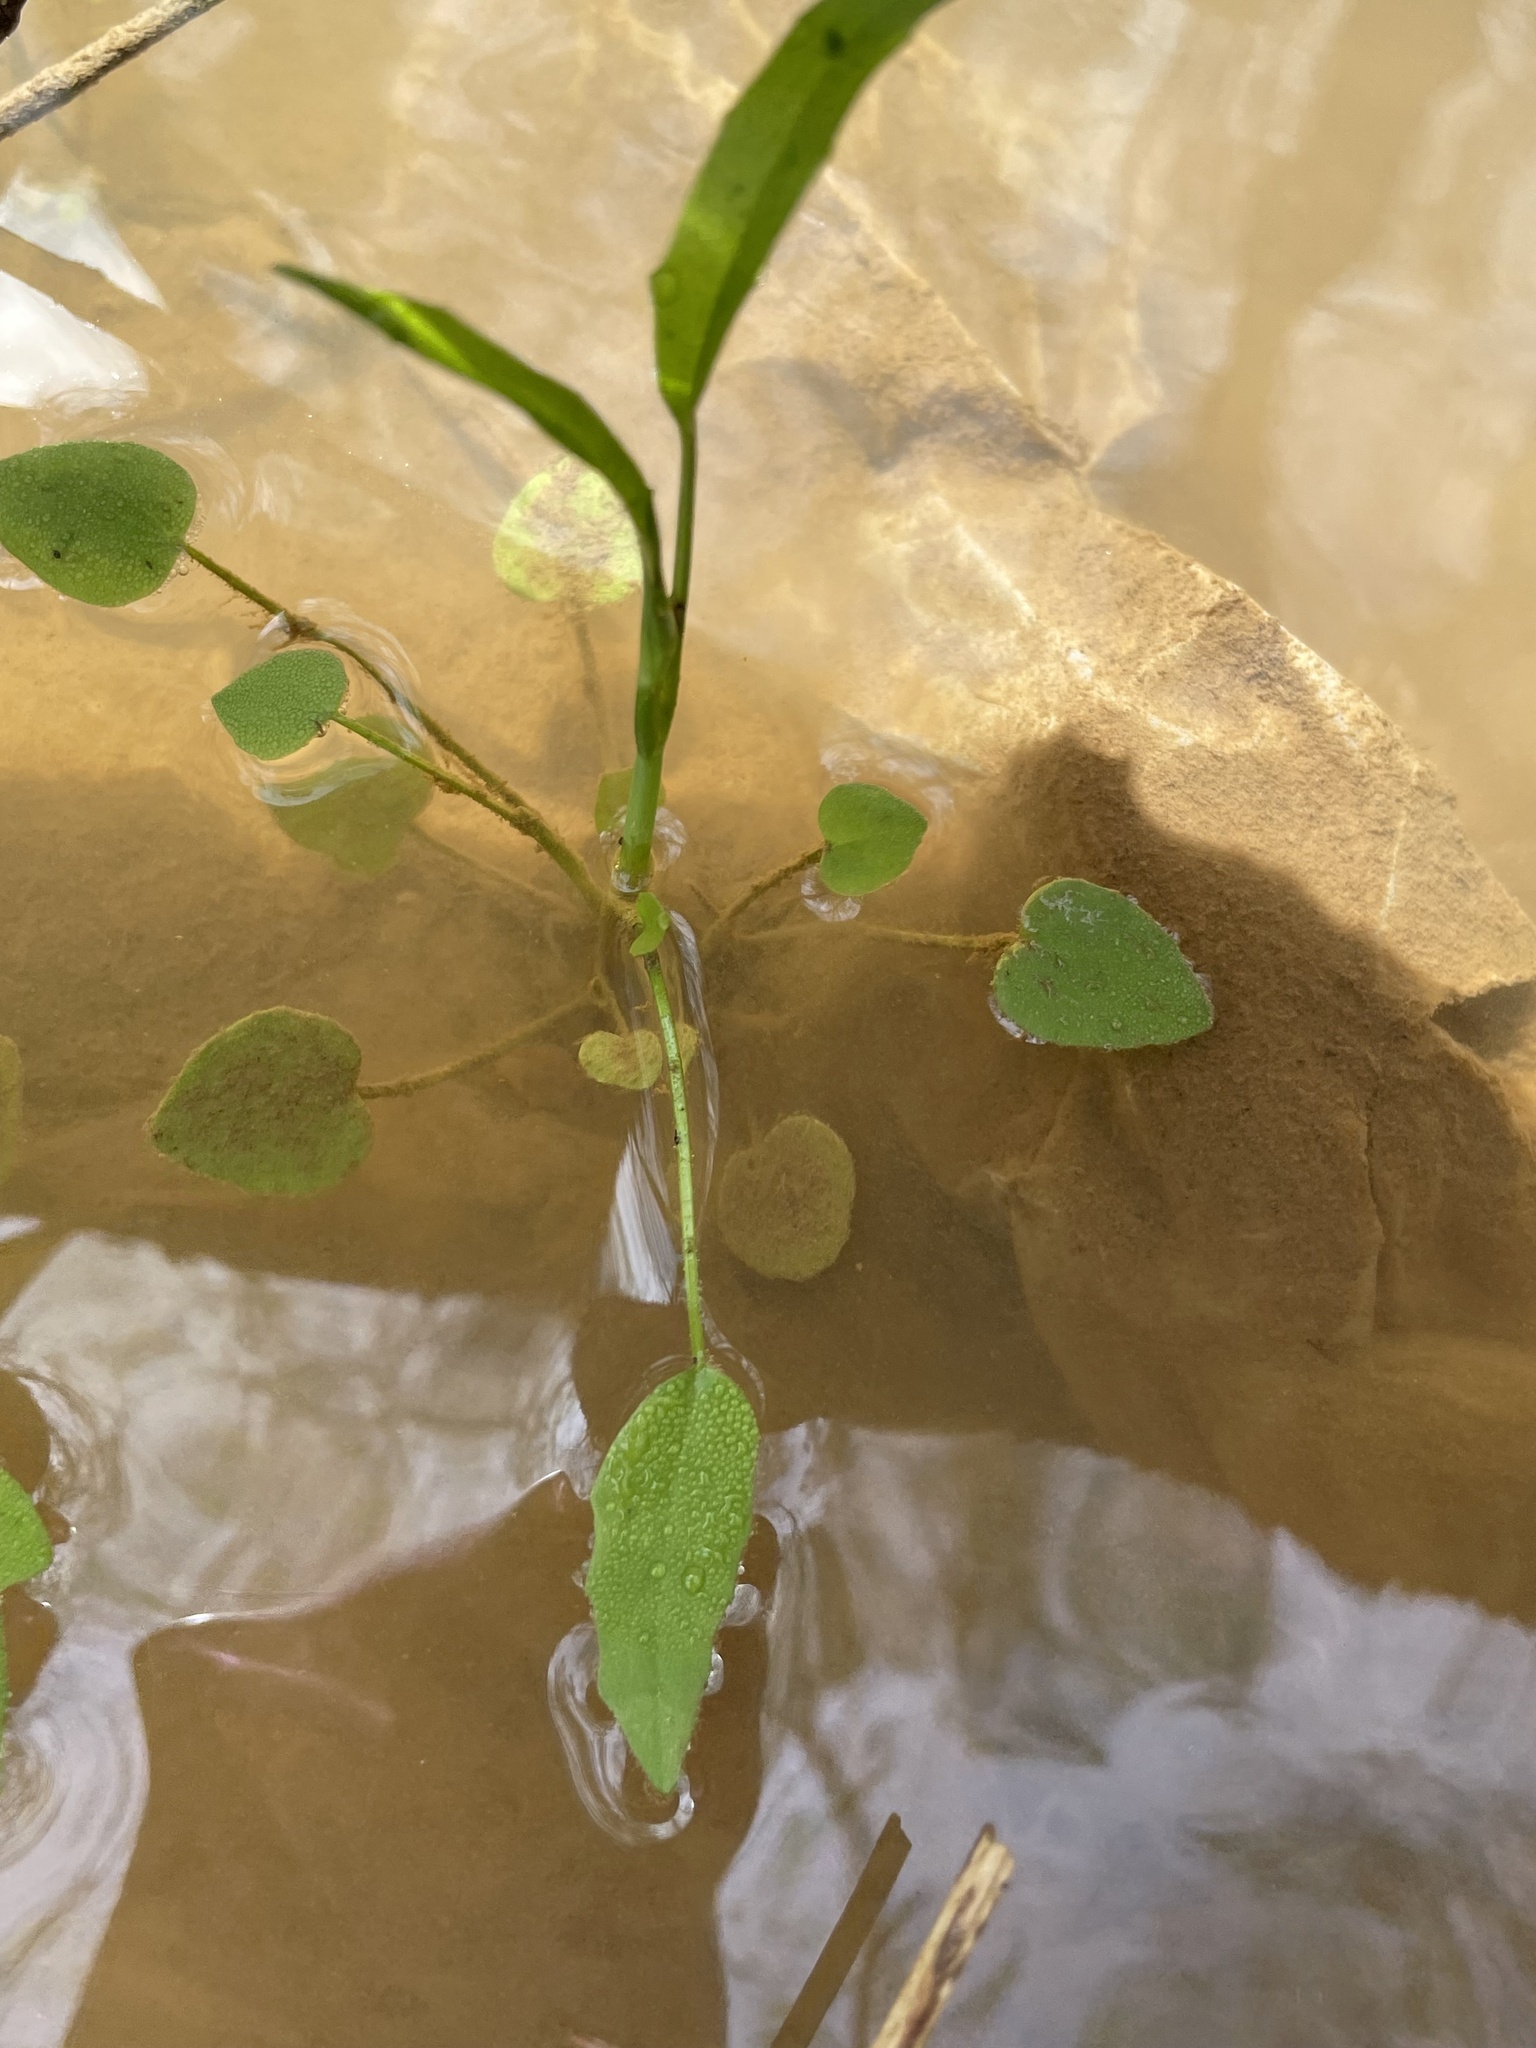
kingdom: Plantae
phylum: Tracheophyta
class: Magnoliopsida
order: Ranunculales
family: Ranunculaceae
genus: Ranunculus
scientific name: Ranunculus pusillus
